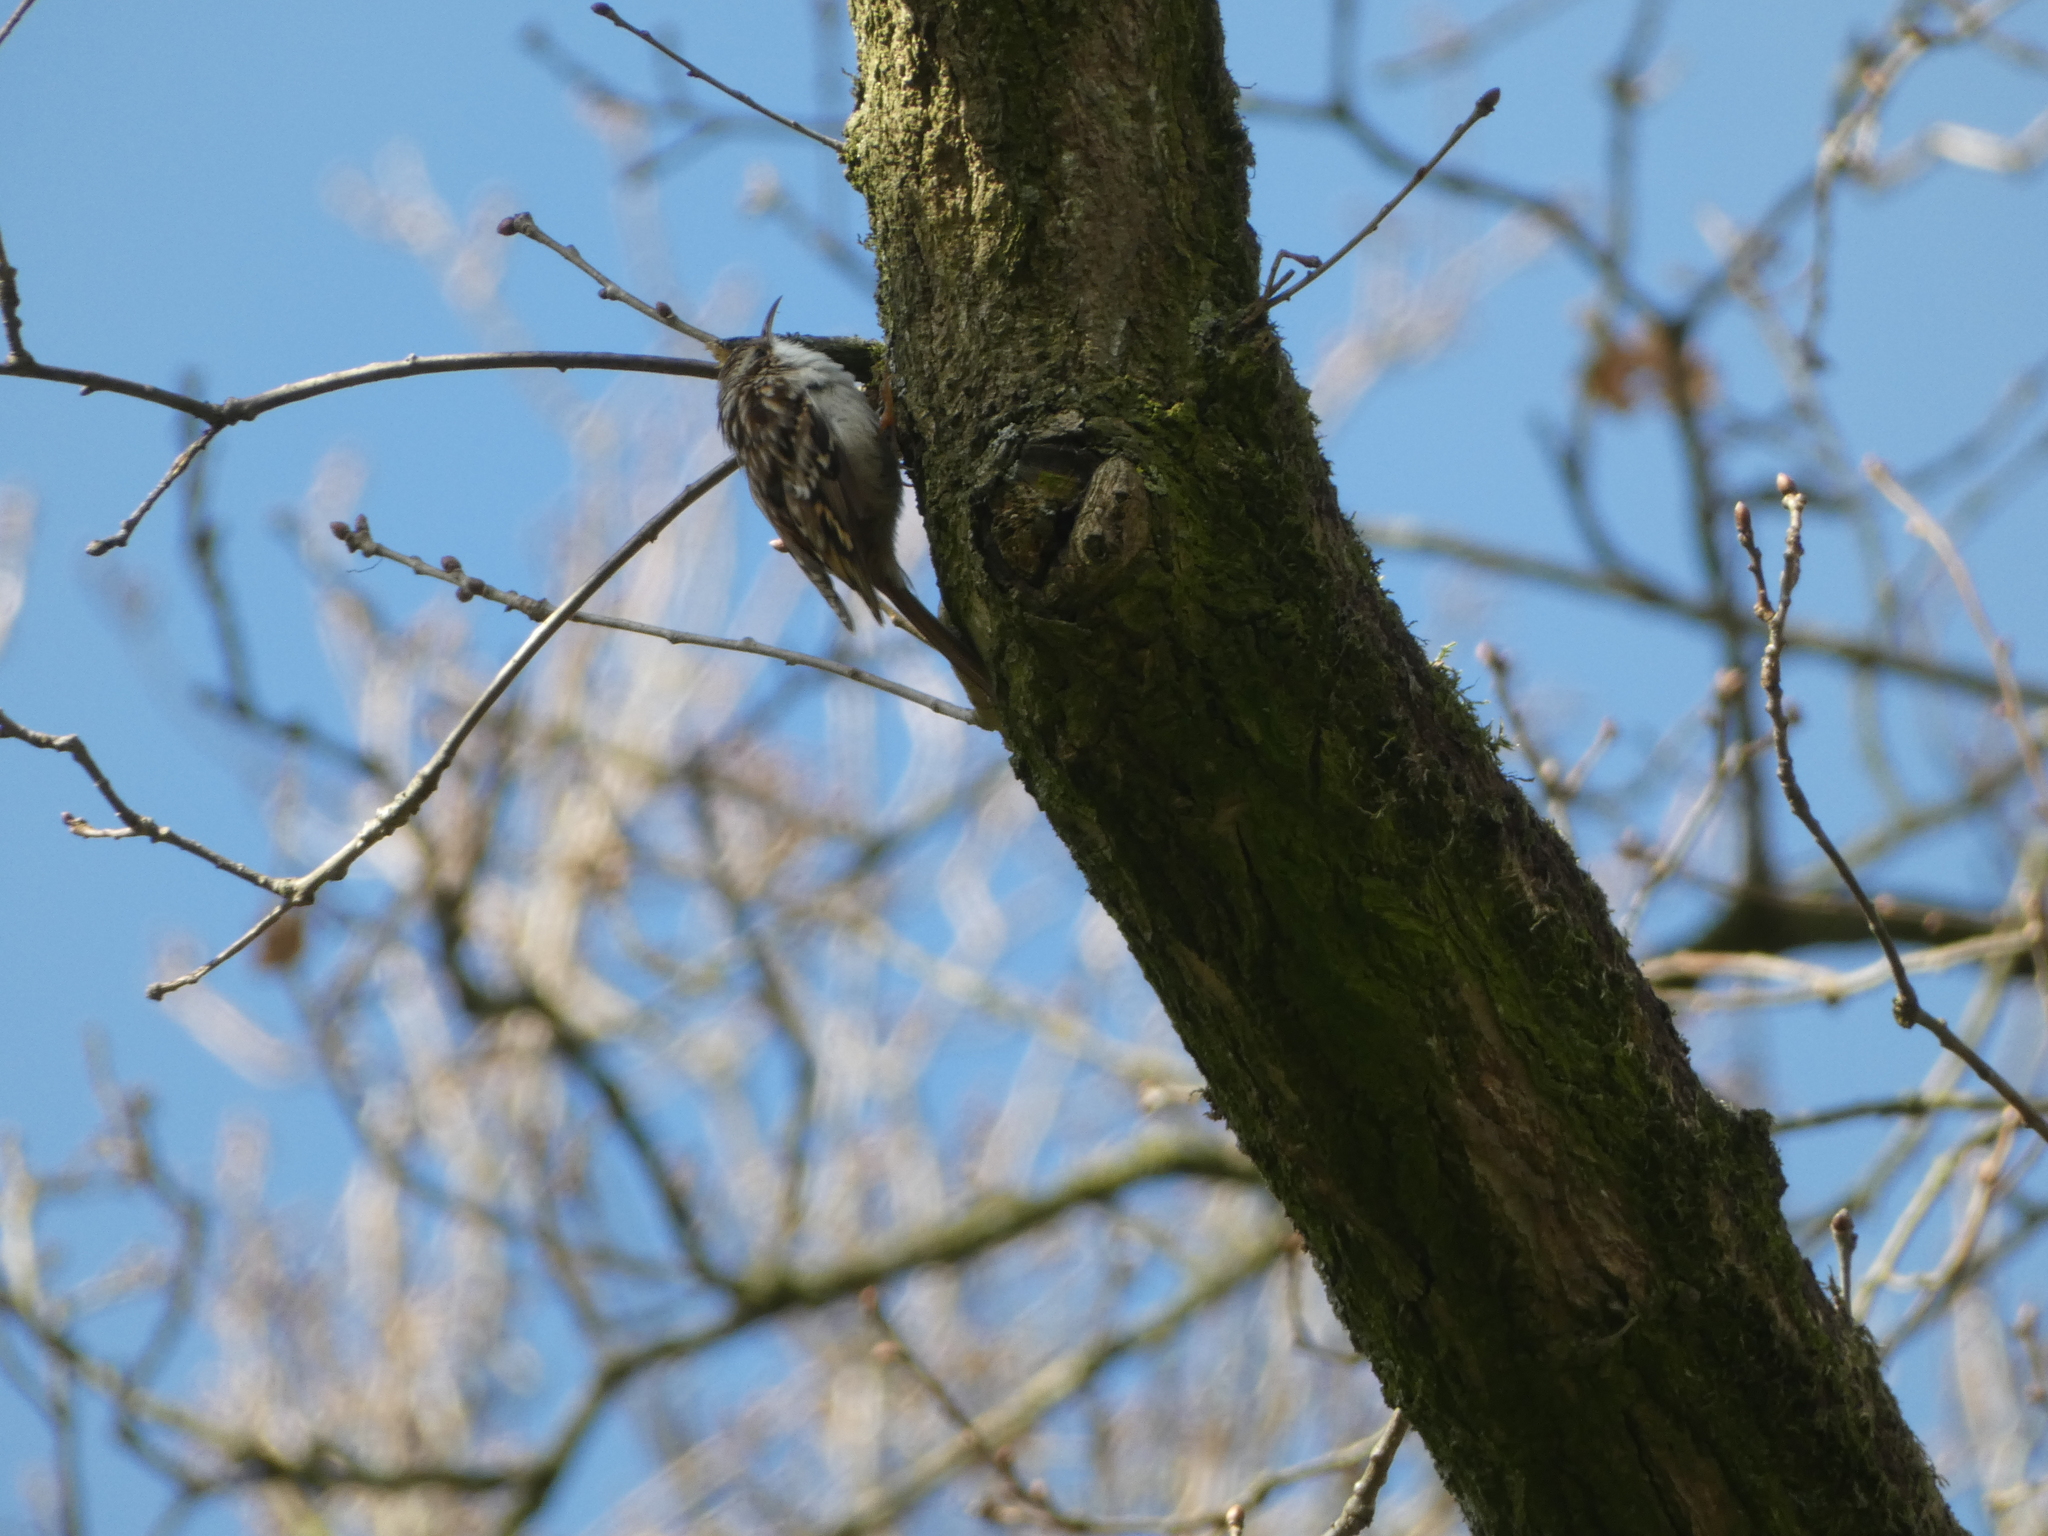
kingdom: Animalia
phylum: Chordata
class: Aves
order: Passeriformes
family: Certhiidae
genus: Certhia
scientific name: Certhia brachydactyla
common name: Short-toed treecreeper
